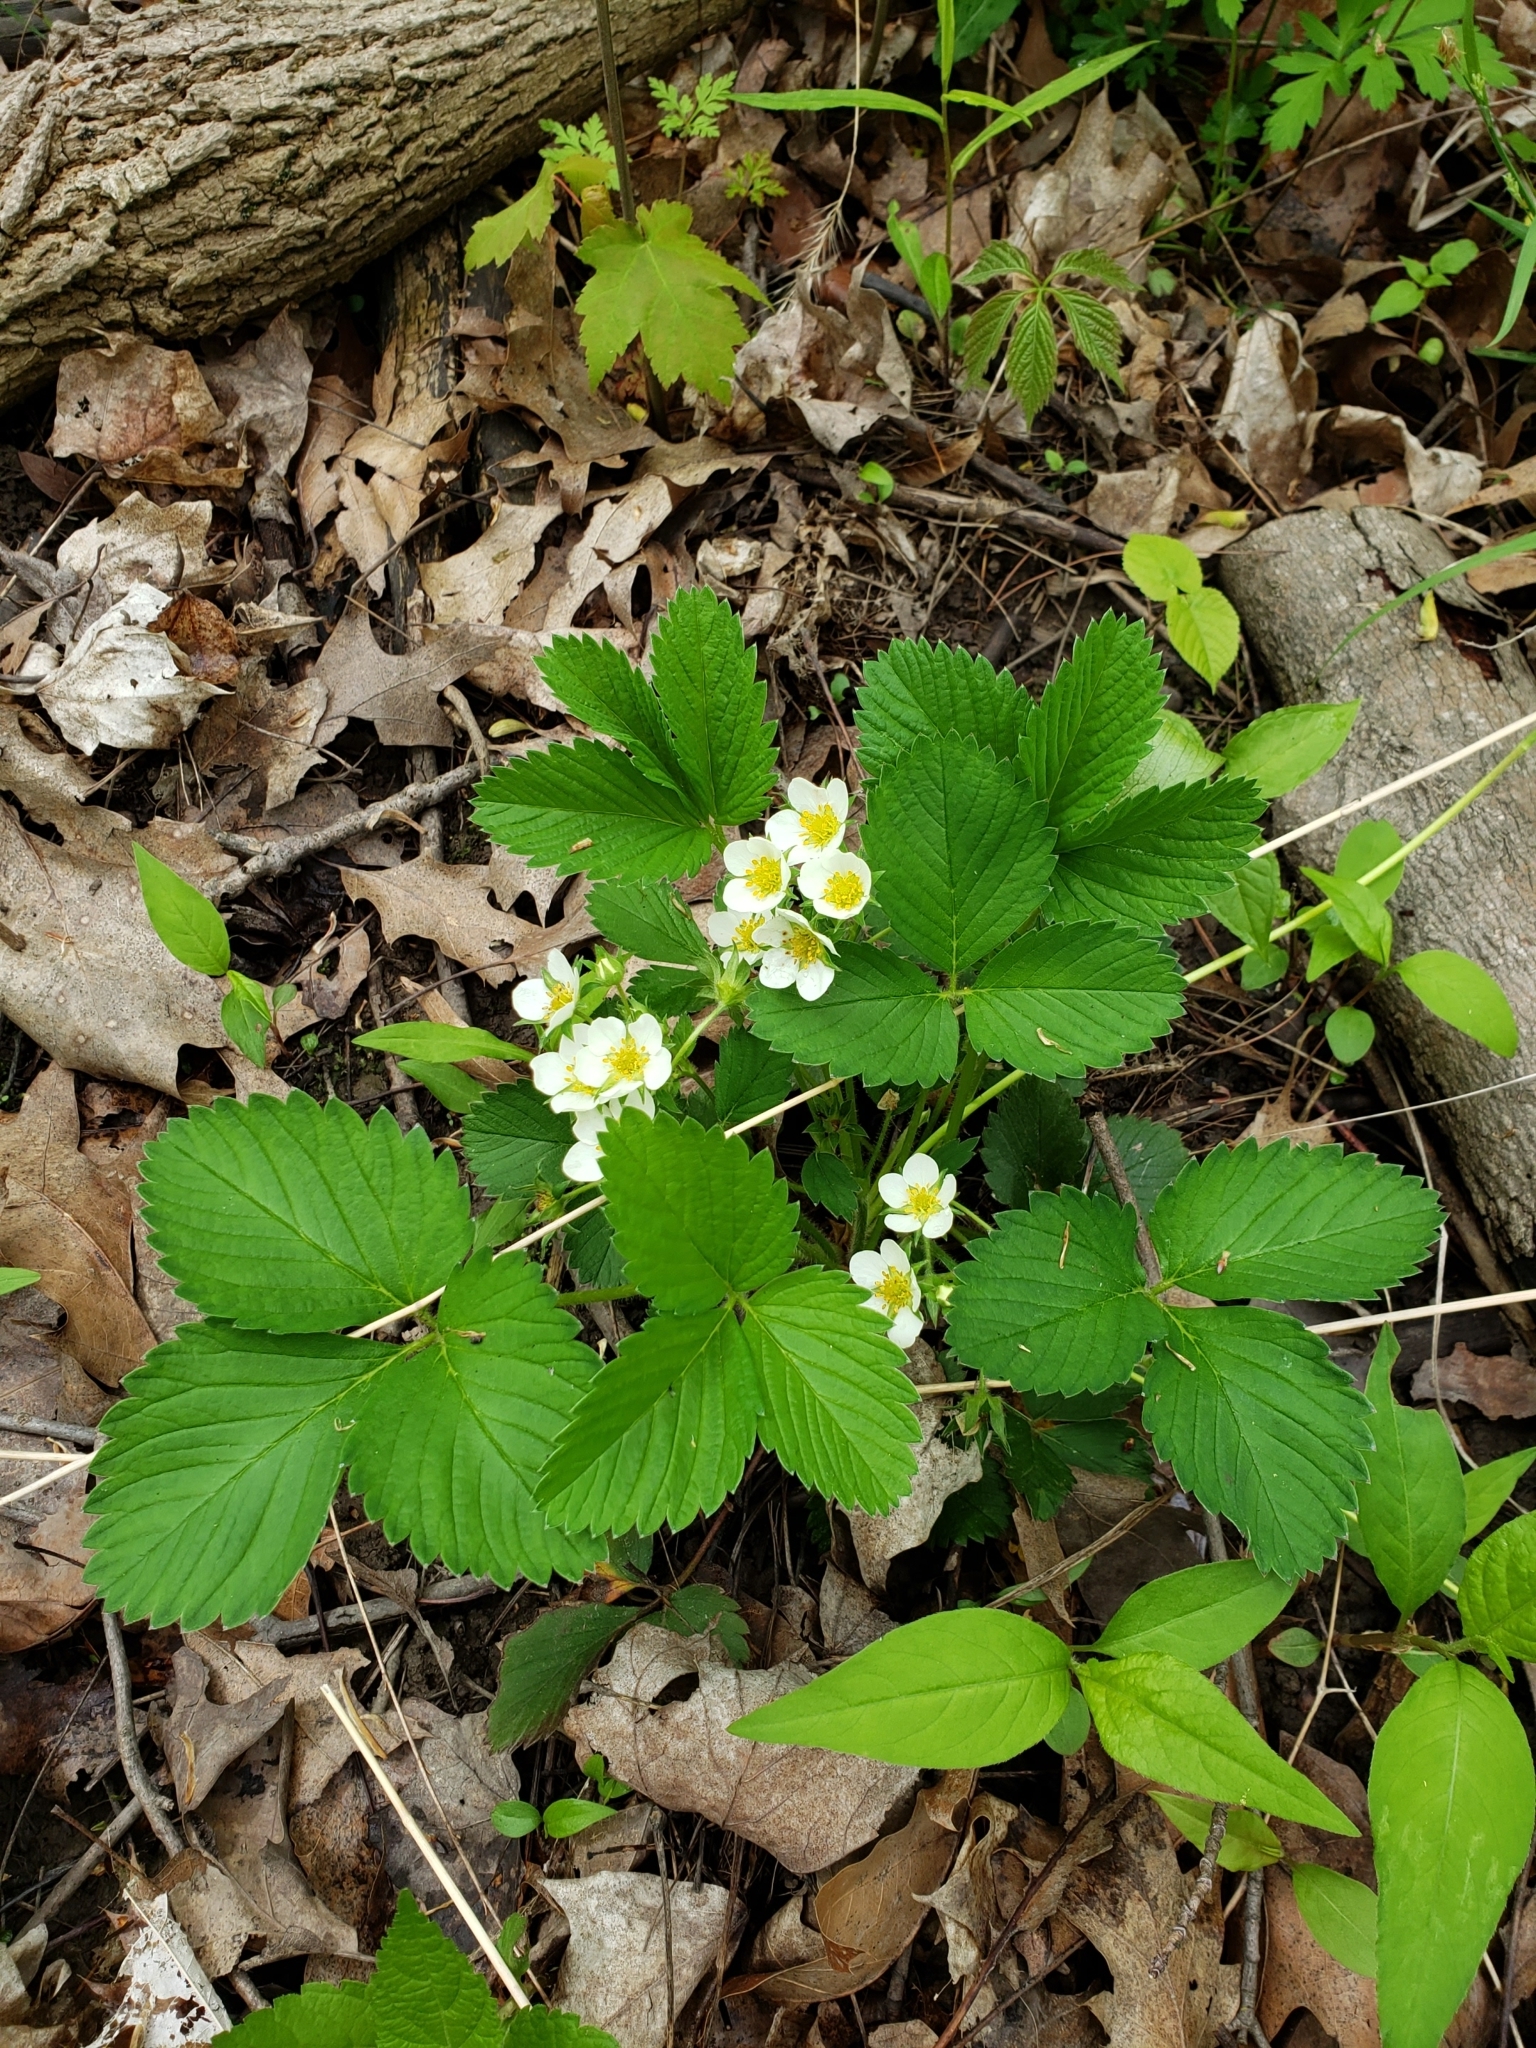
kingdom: Plantae
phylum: Tracheophyta
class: Magnoliopsida
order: Rosales
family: Rosaceae
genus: Fragaria
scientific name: Fragaria vesca
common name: Wild strawberry
